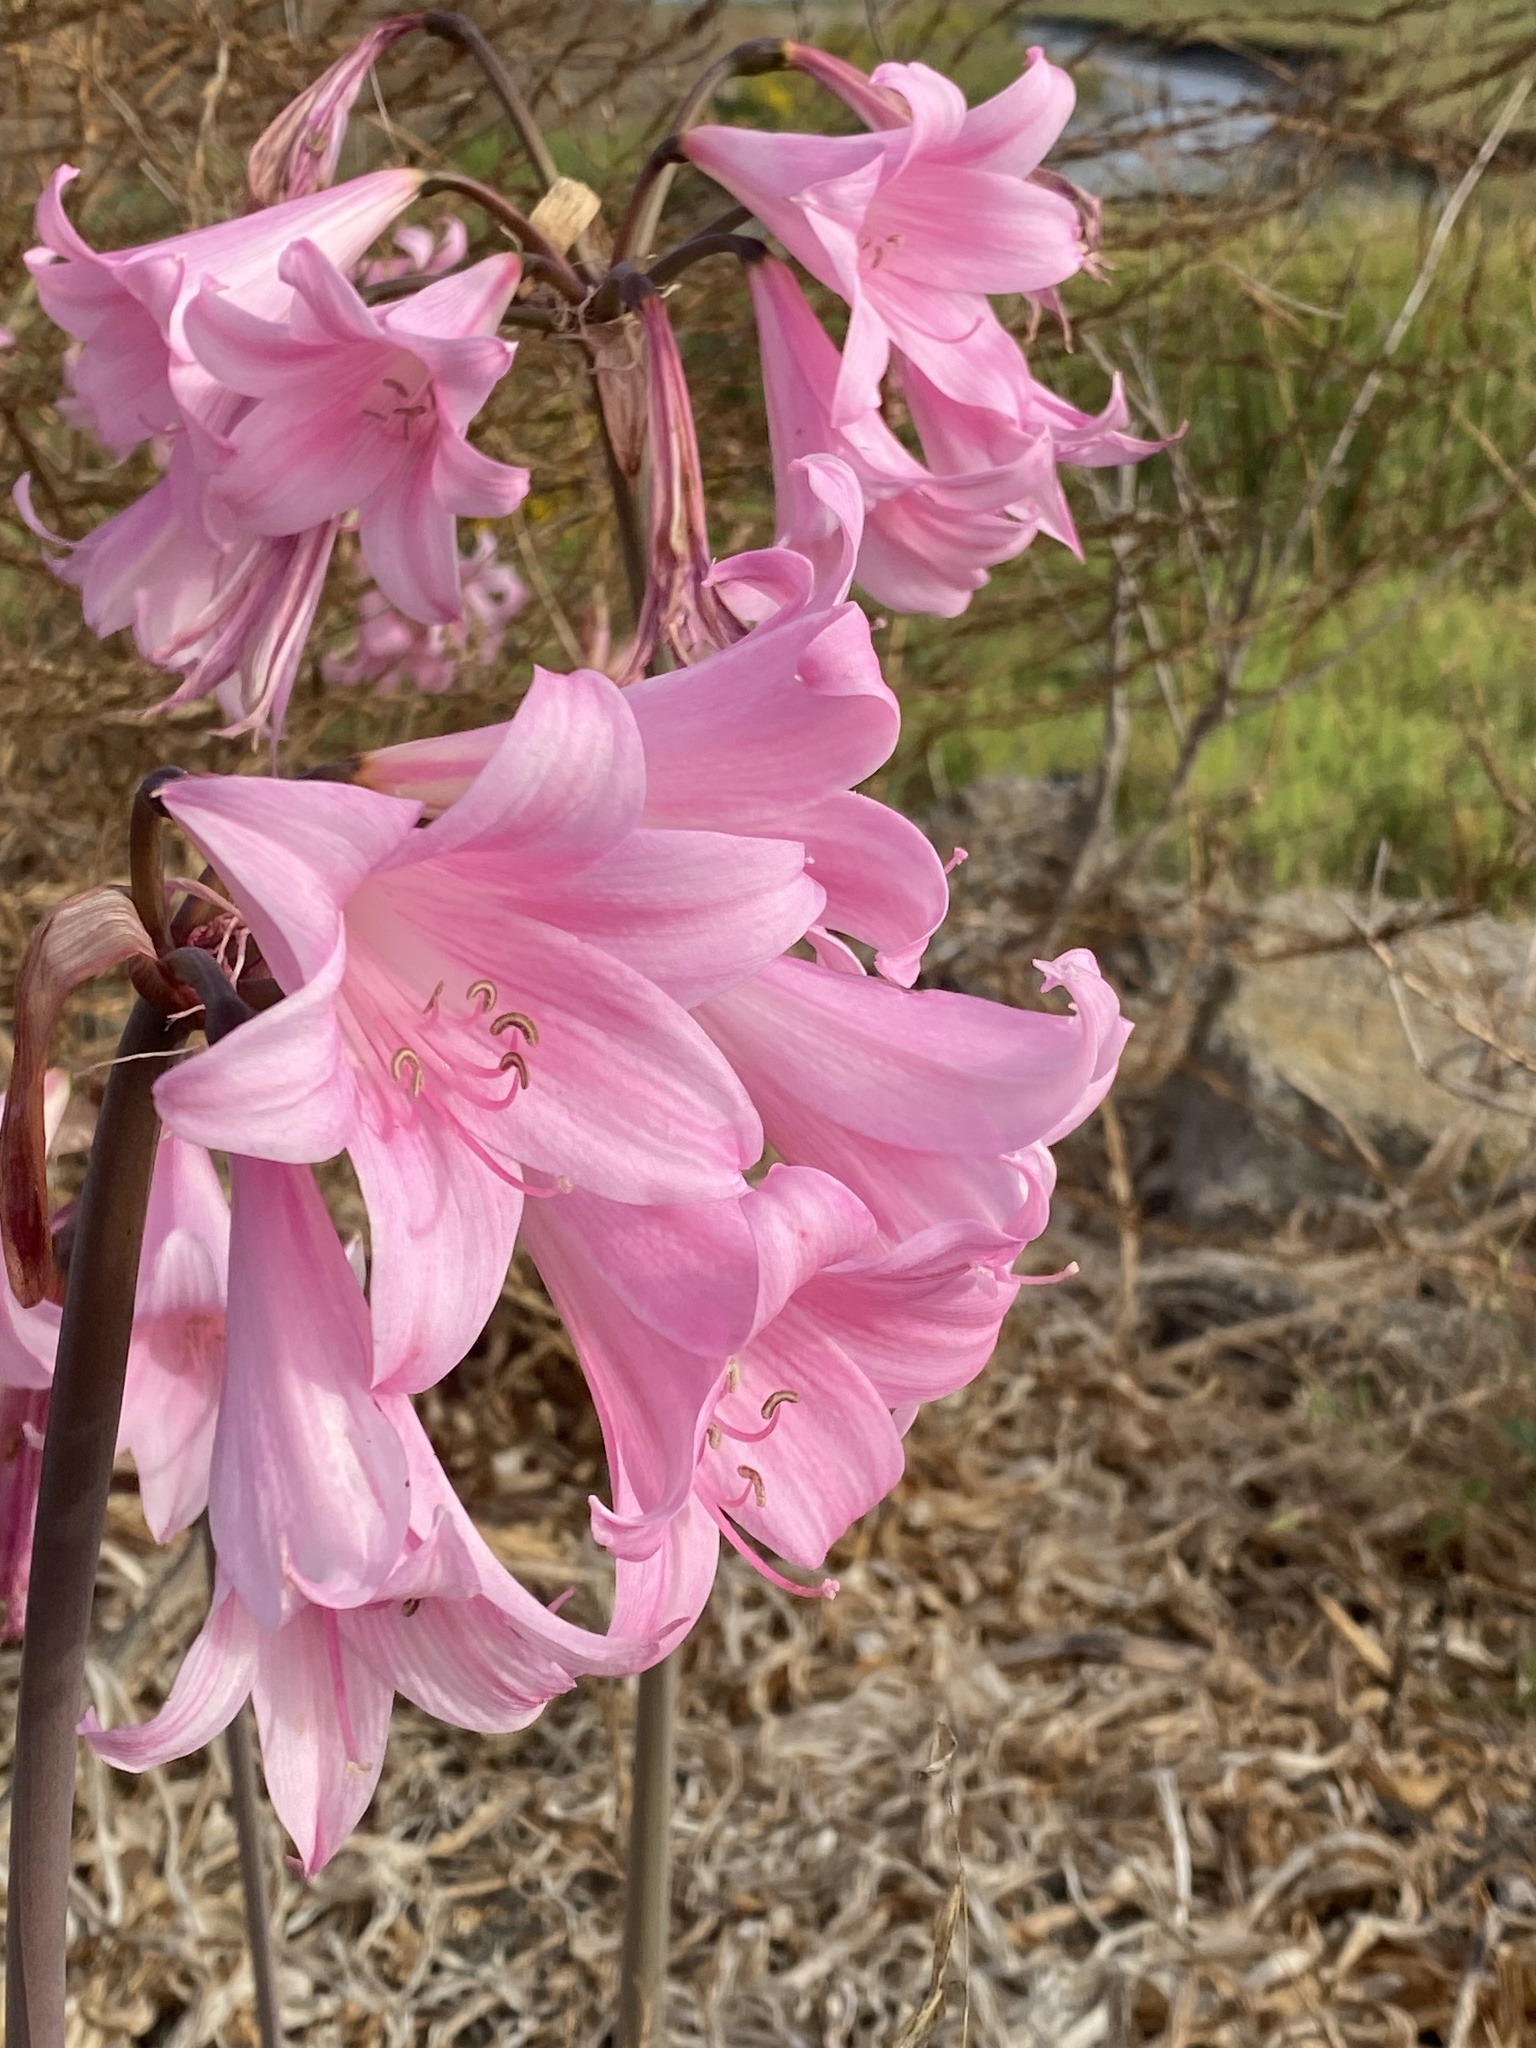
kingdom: Plantae
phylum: Tracheophyta
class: Liliopsida
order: Asparagales
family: Amaryllidaceae
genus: Amaryllis
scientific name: Amaryllis belladonna
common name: Jersey lily
